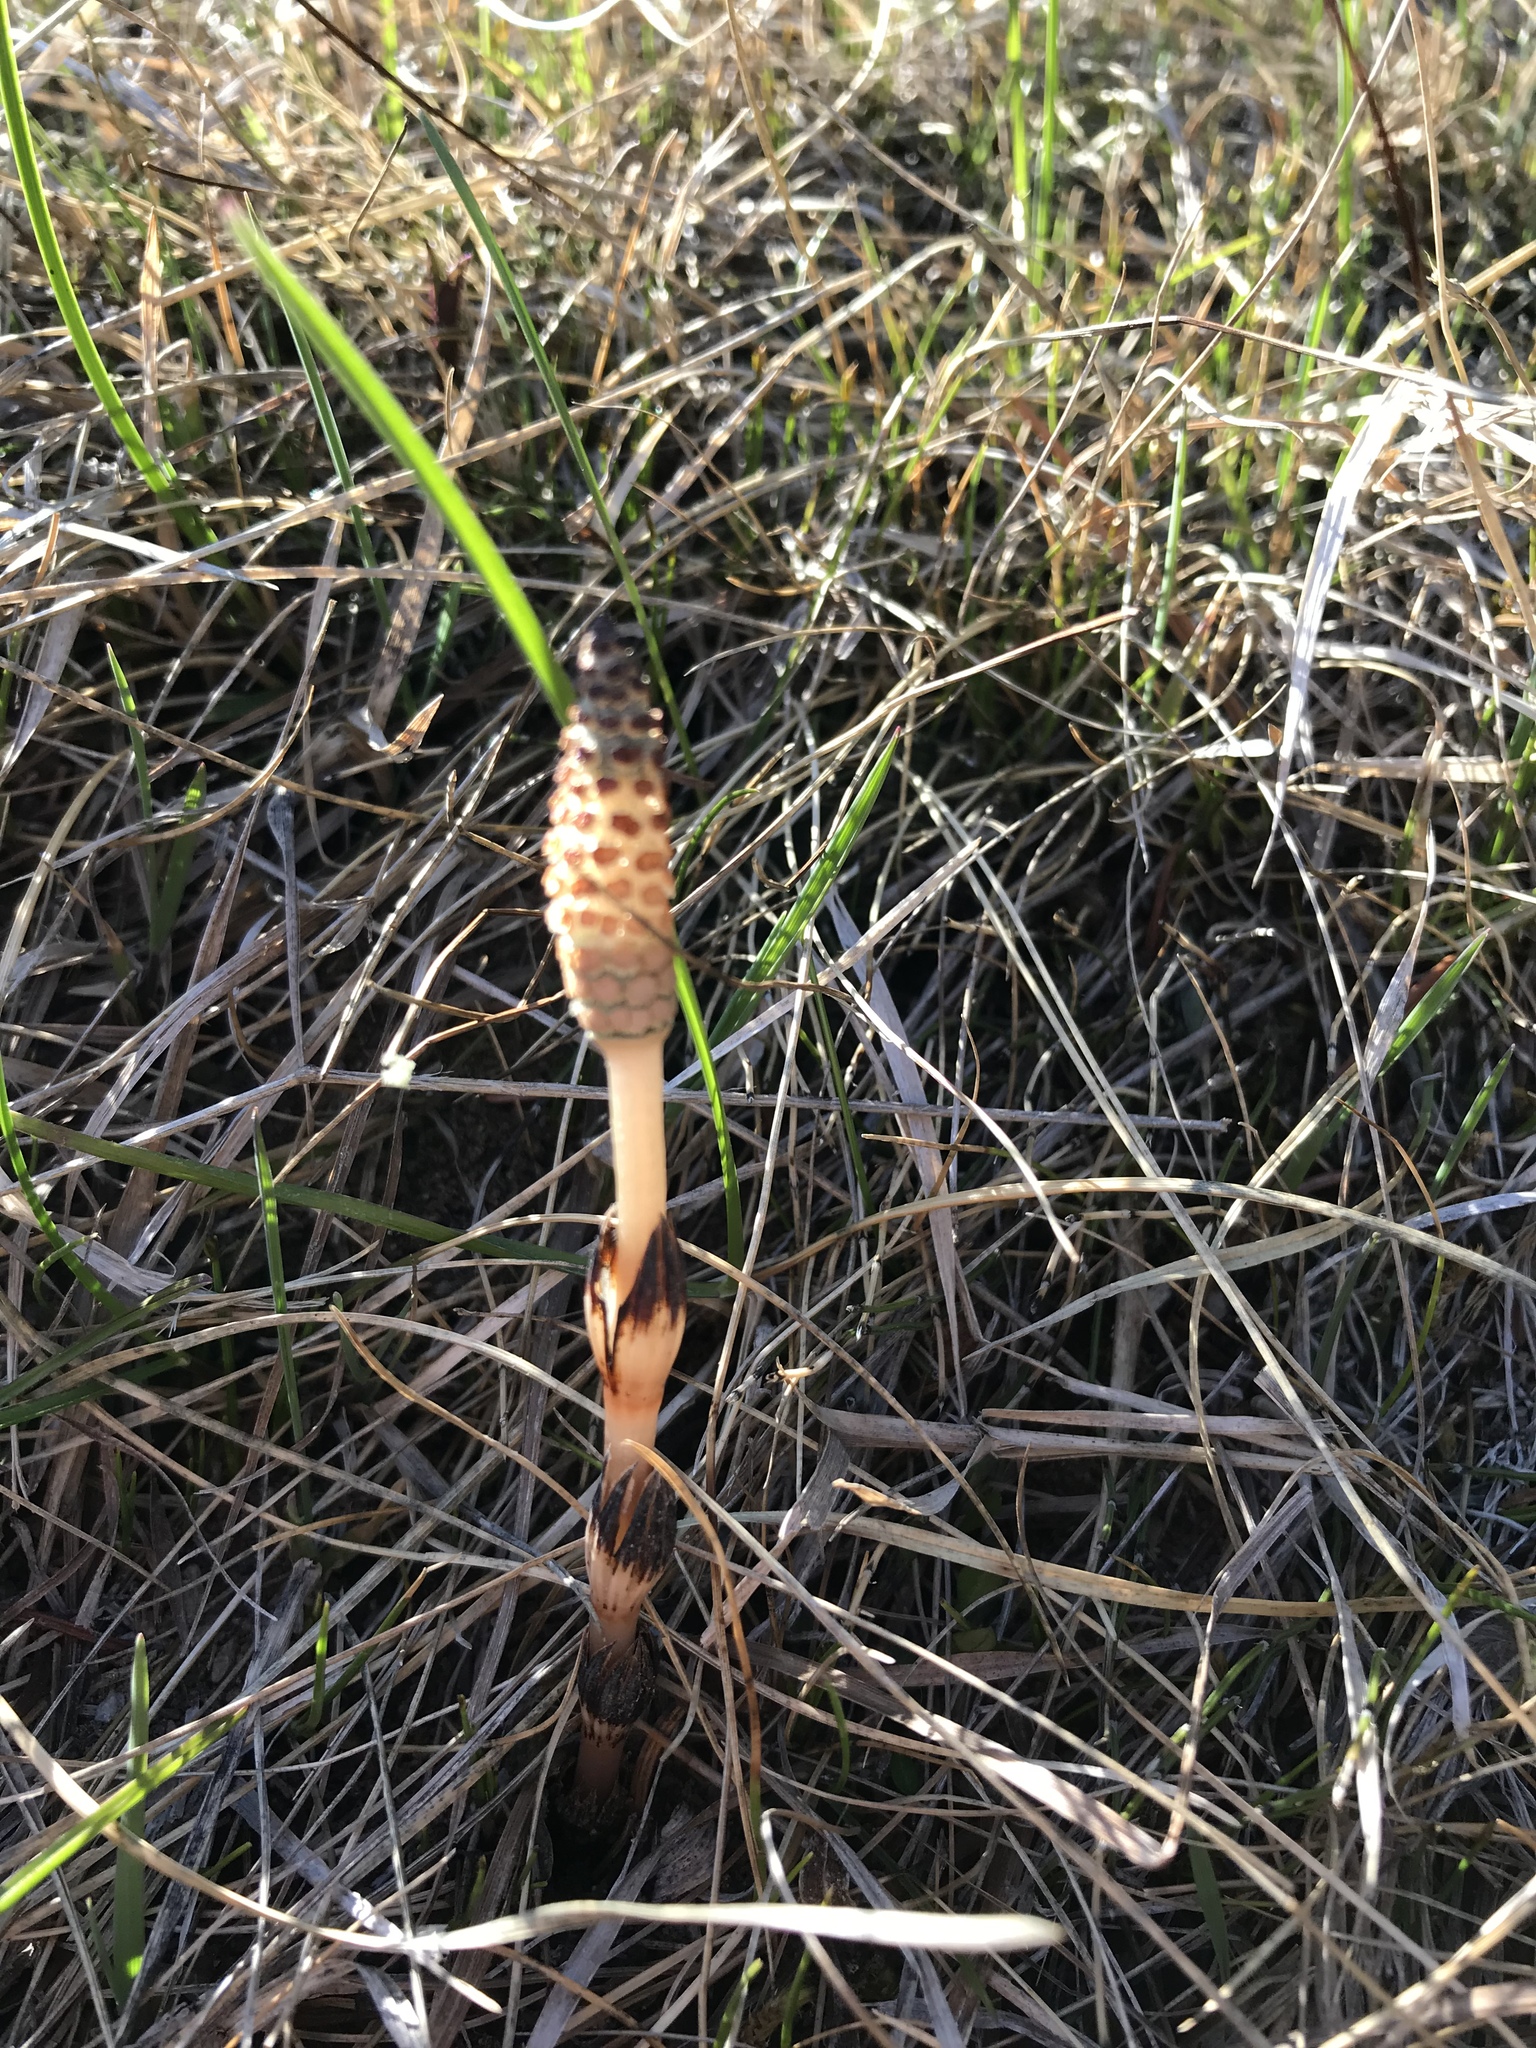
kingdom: Plantae
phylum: Tracheophyta
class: Polypodiopsida
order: Equisetales
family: Equisetaceae
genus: Equisetum
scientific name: Equisetum arvense
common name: Field horsetail
